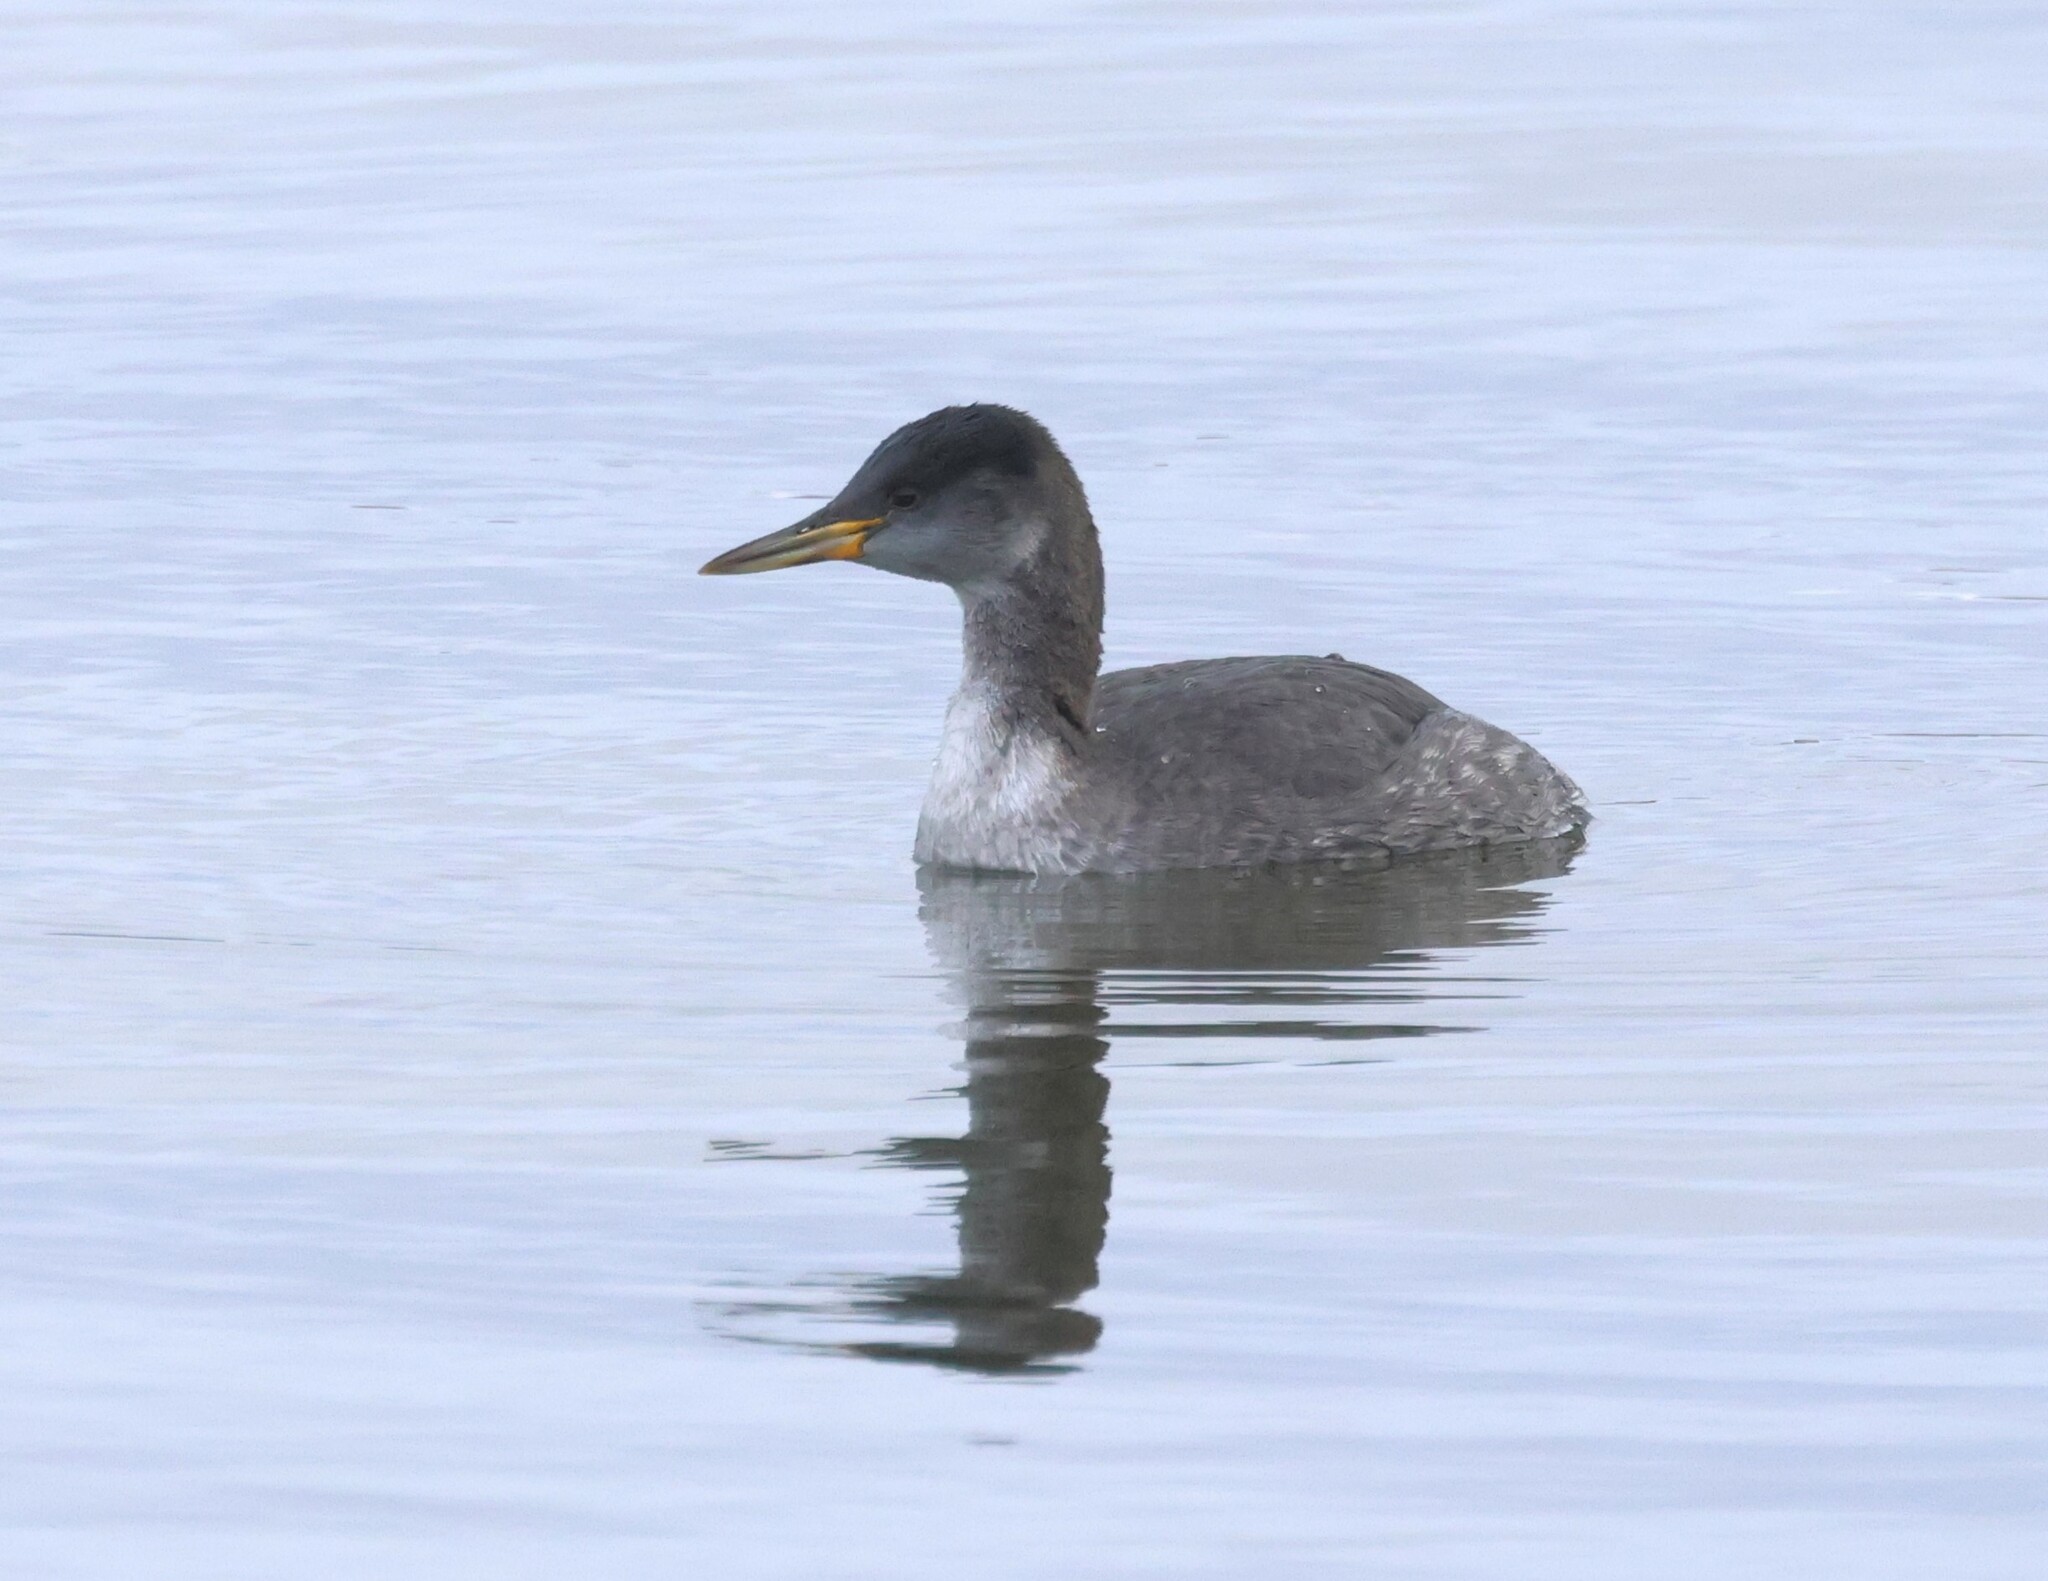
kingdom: Animalia
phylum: Chordata
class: Aves
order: Podicipediformes
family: Podicipedidae
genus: Podiceps
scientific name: Podiceps grisegena
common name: Red-necked grebe
